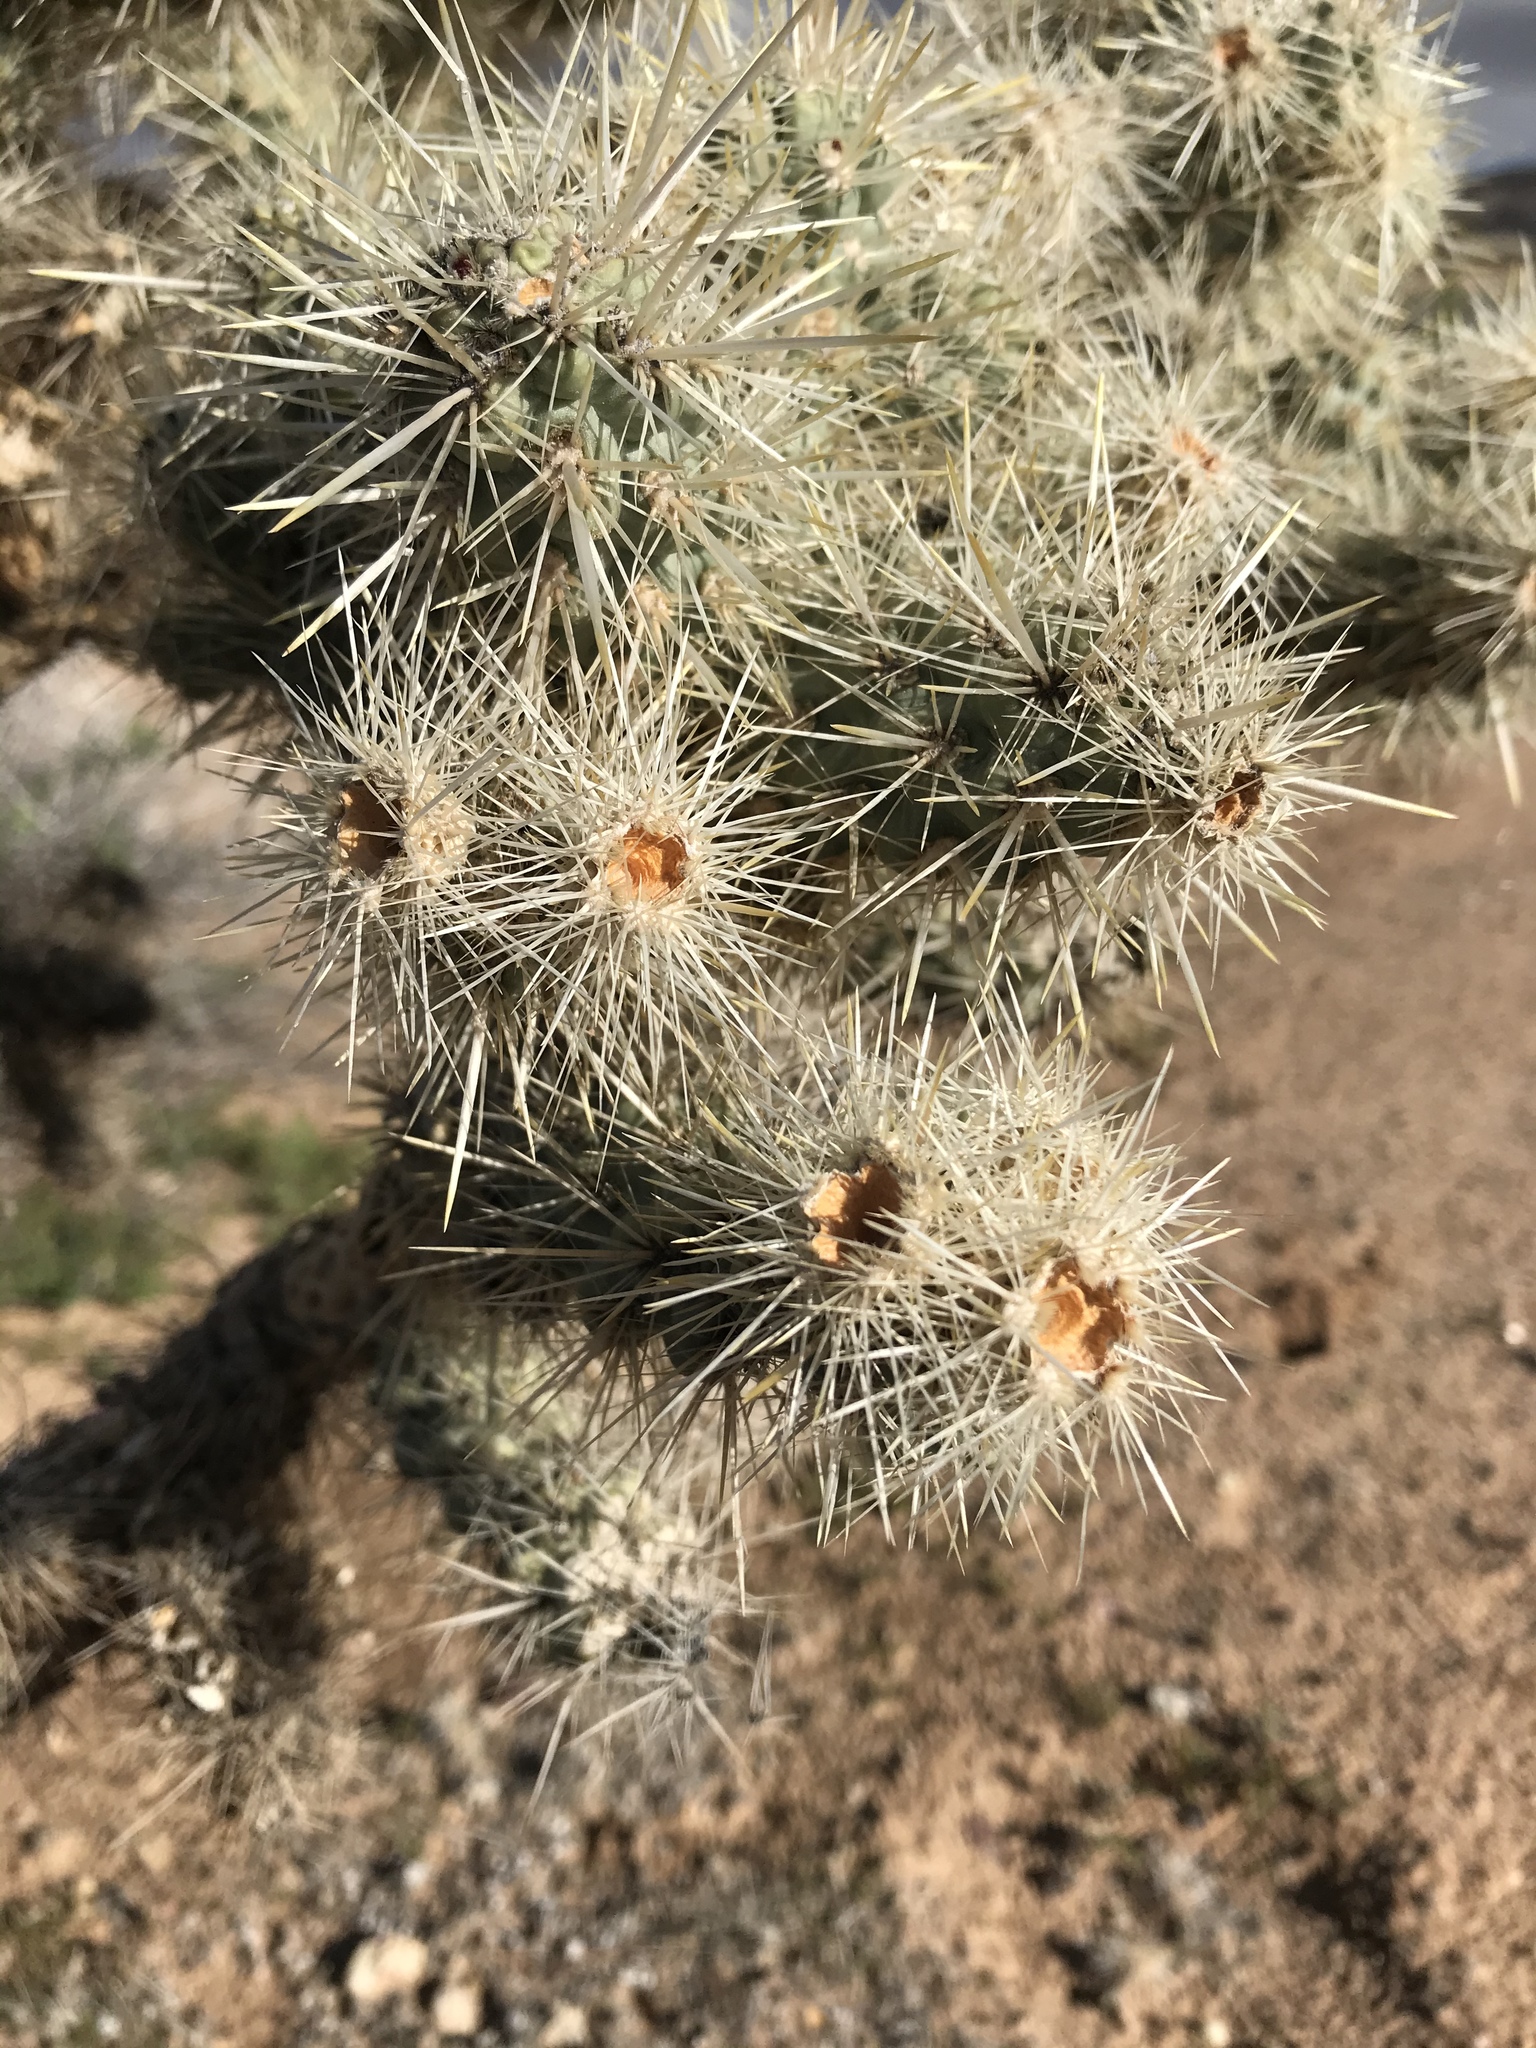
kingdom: Plantae
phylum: Tracheophyta
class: Magnoliopsida
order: Caryophyllales
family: Cactaceae
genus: Cylindropuntia
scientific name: Cylindropuntia echinocarpa
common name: Ground cholla
